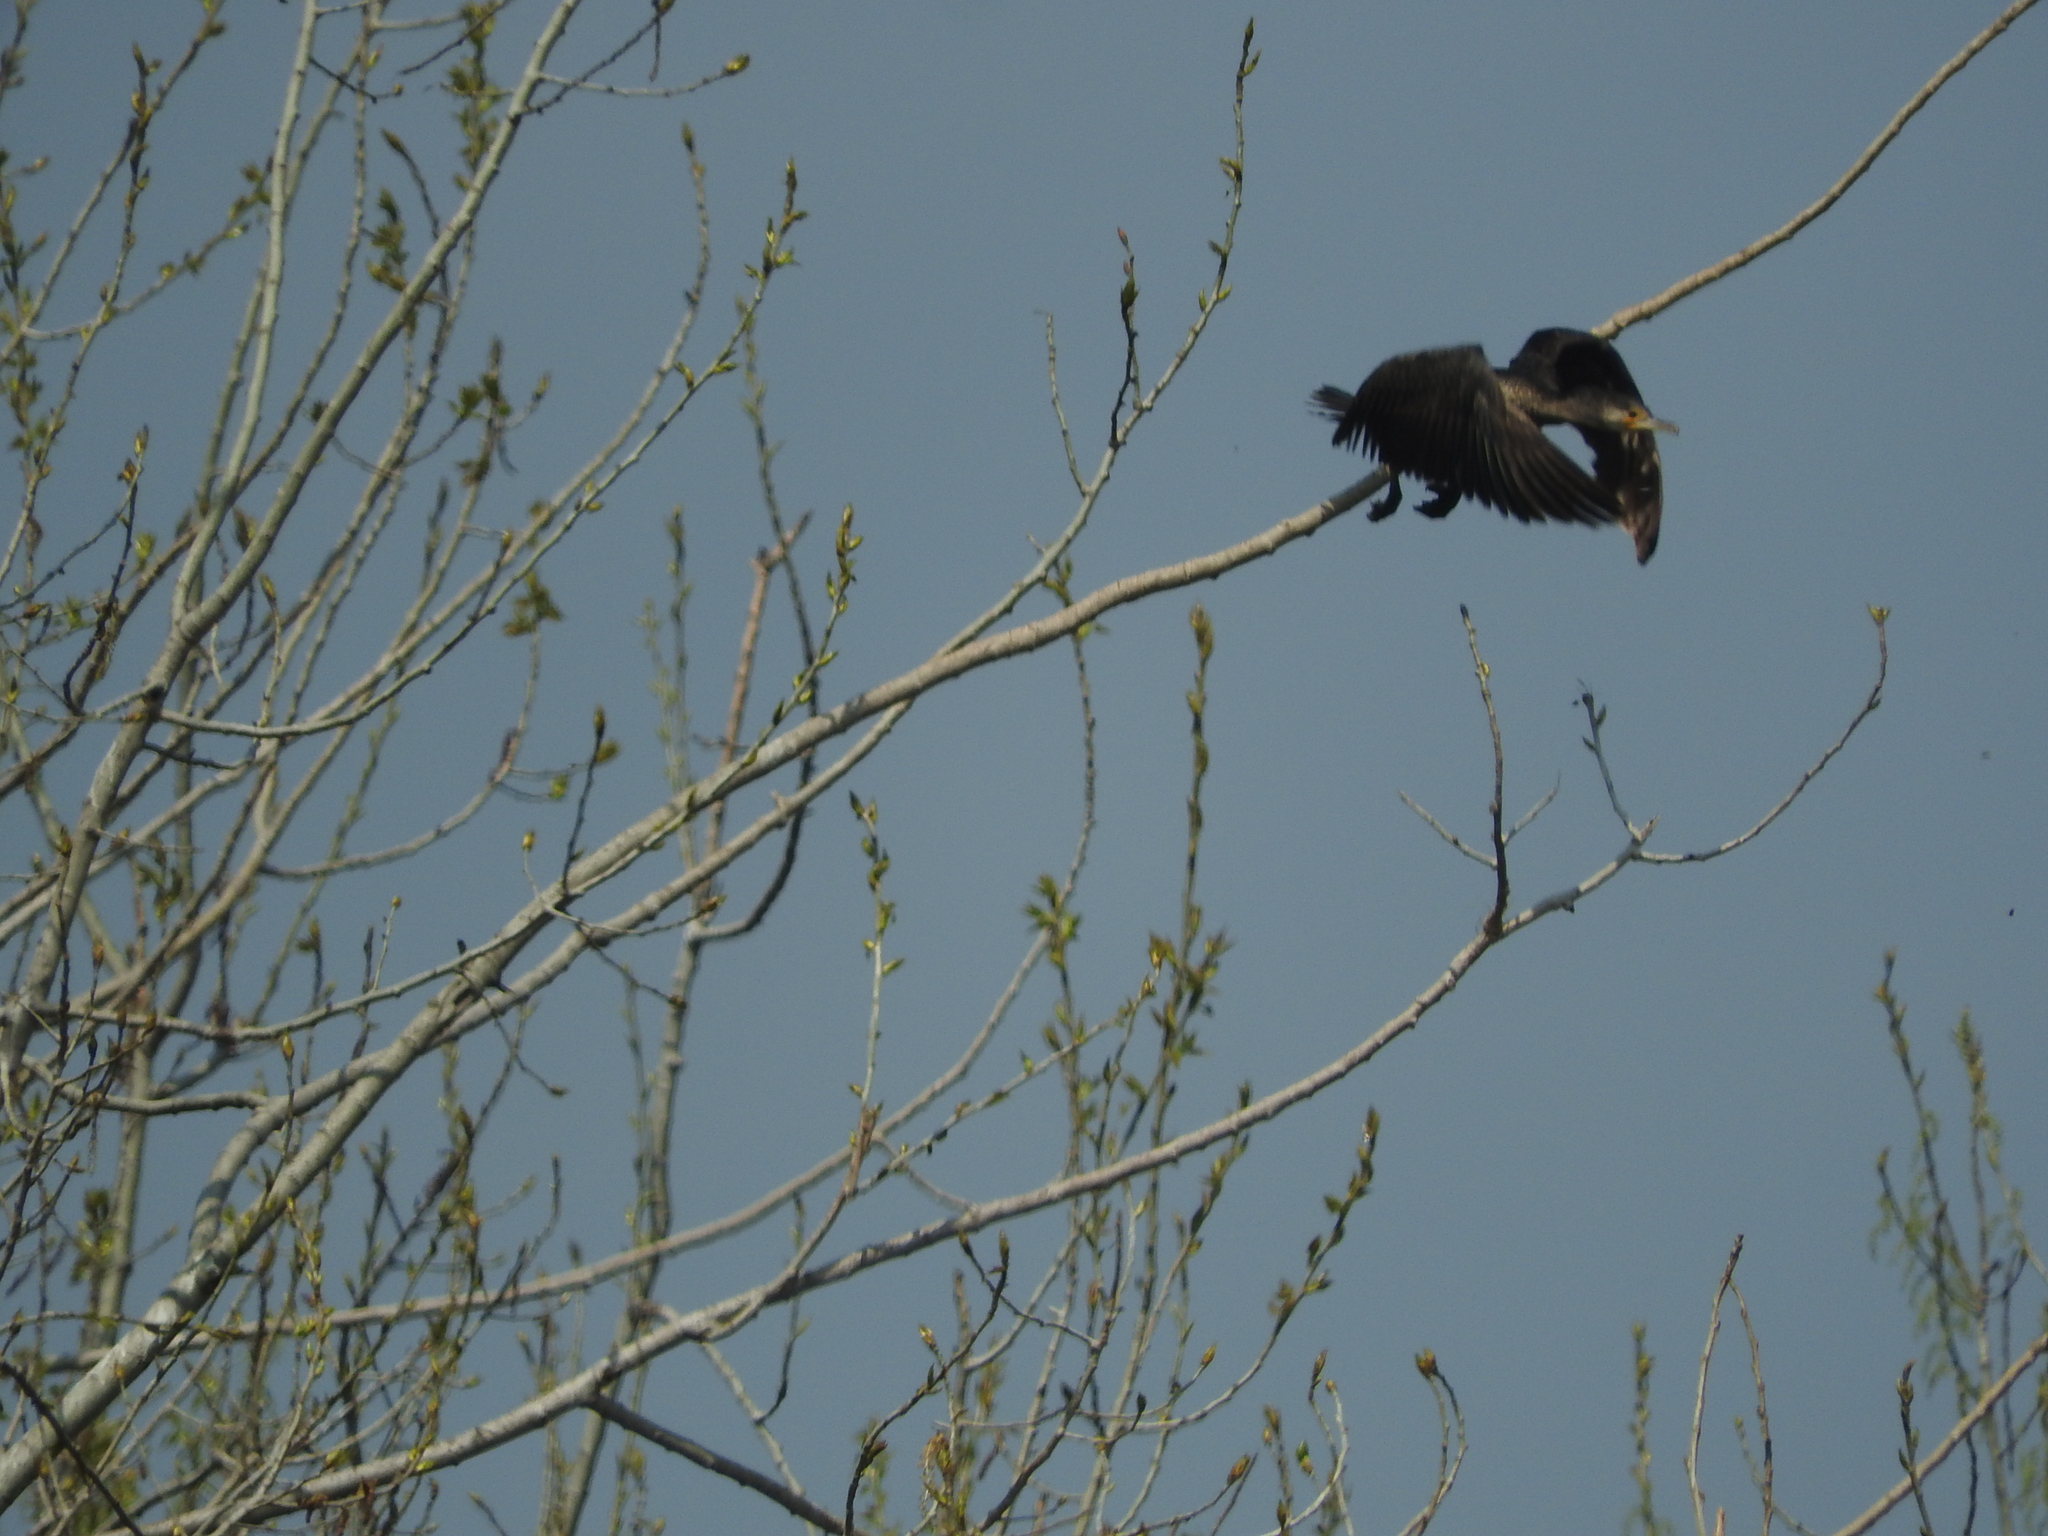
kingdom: Animalia
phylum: Chordata
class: Aves
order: Suliformes
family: Phalacrocoracidae
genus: Phalacrocorax
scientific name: Phalacrocorax carbo
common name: Great cormorant
